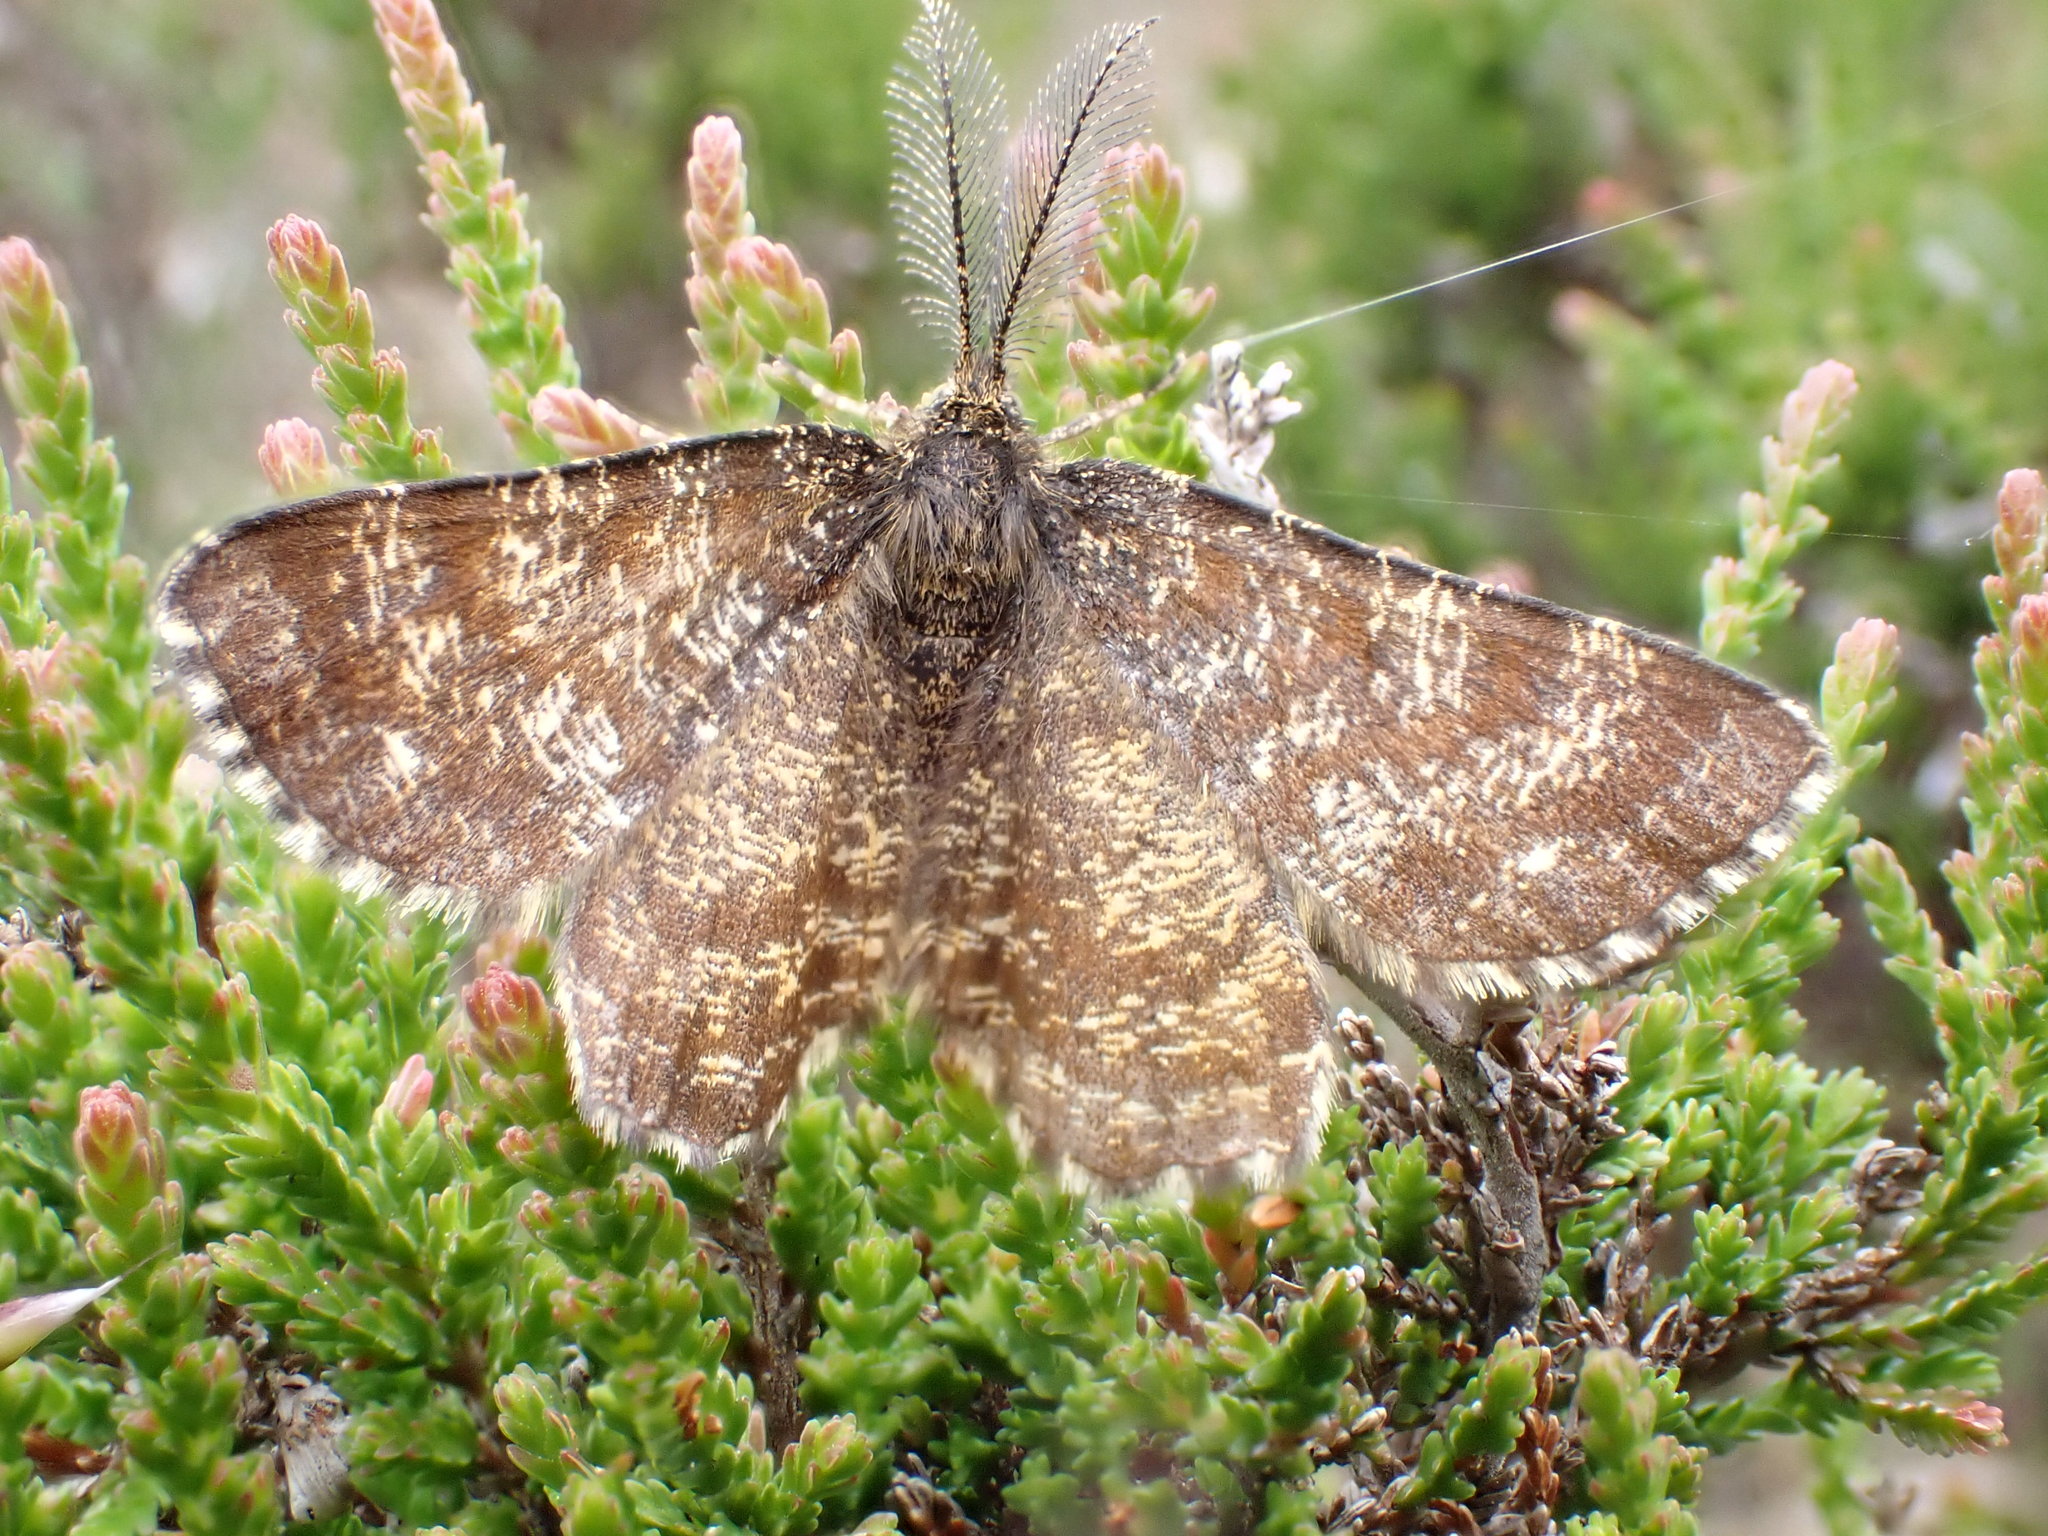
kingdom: Animalia
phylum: Arthropoda
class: Insecta
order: Lepidoptera
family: Geometridae
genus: Ematurga
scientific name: Ematurga atomaria
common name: Common heath
